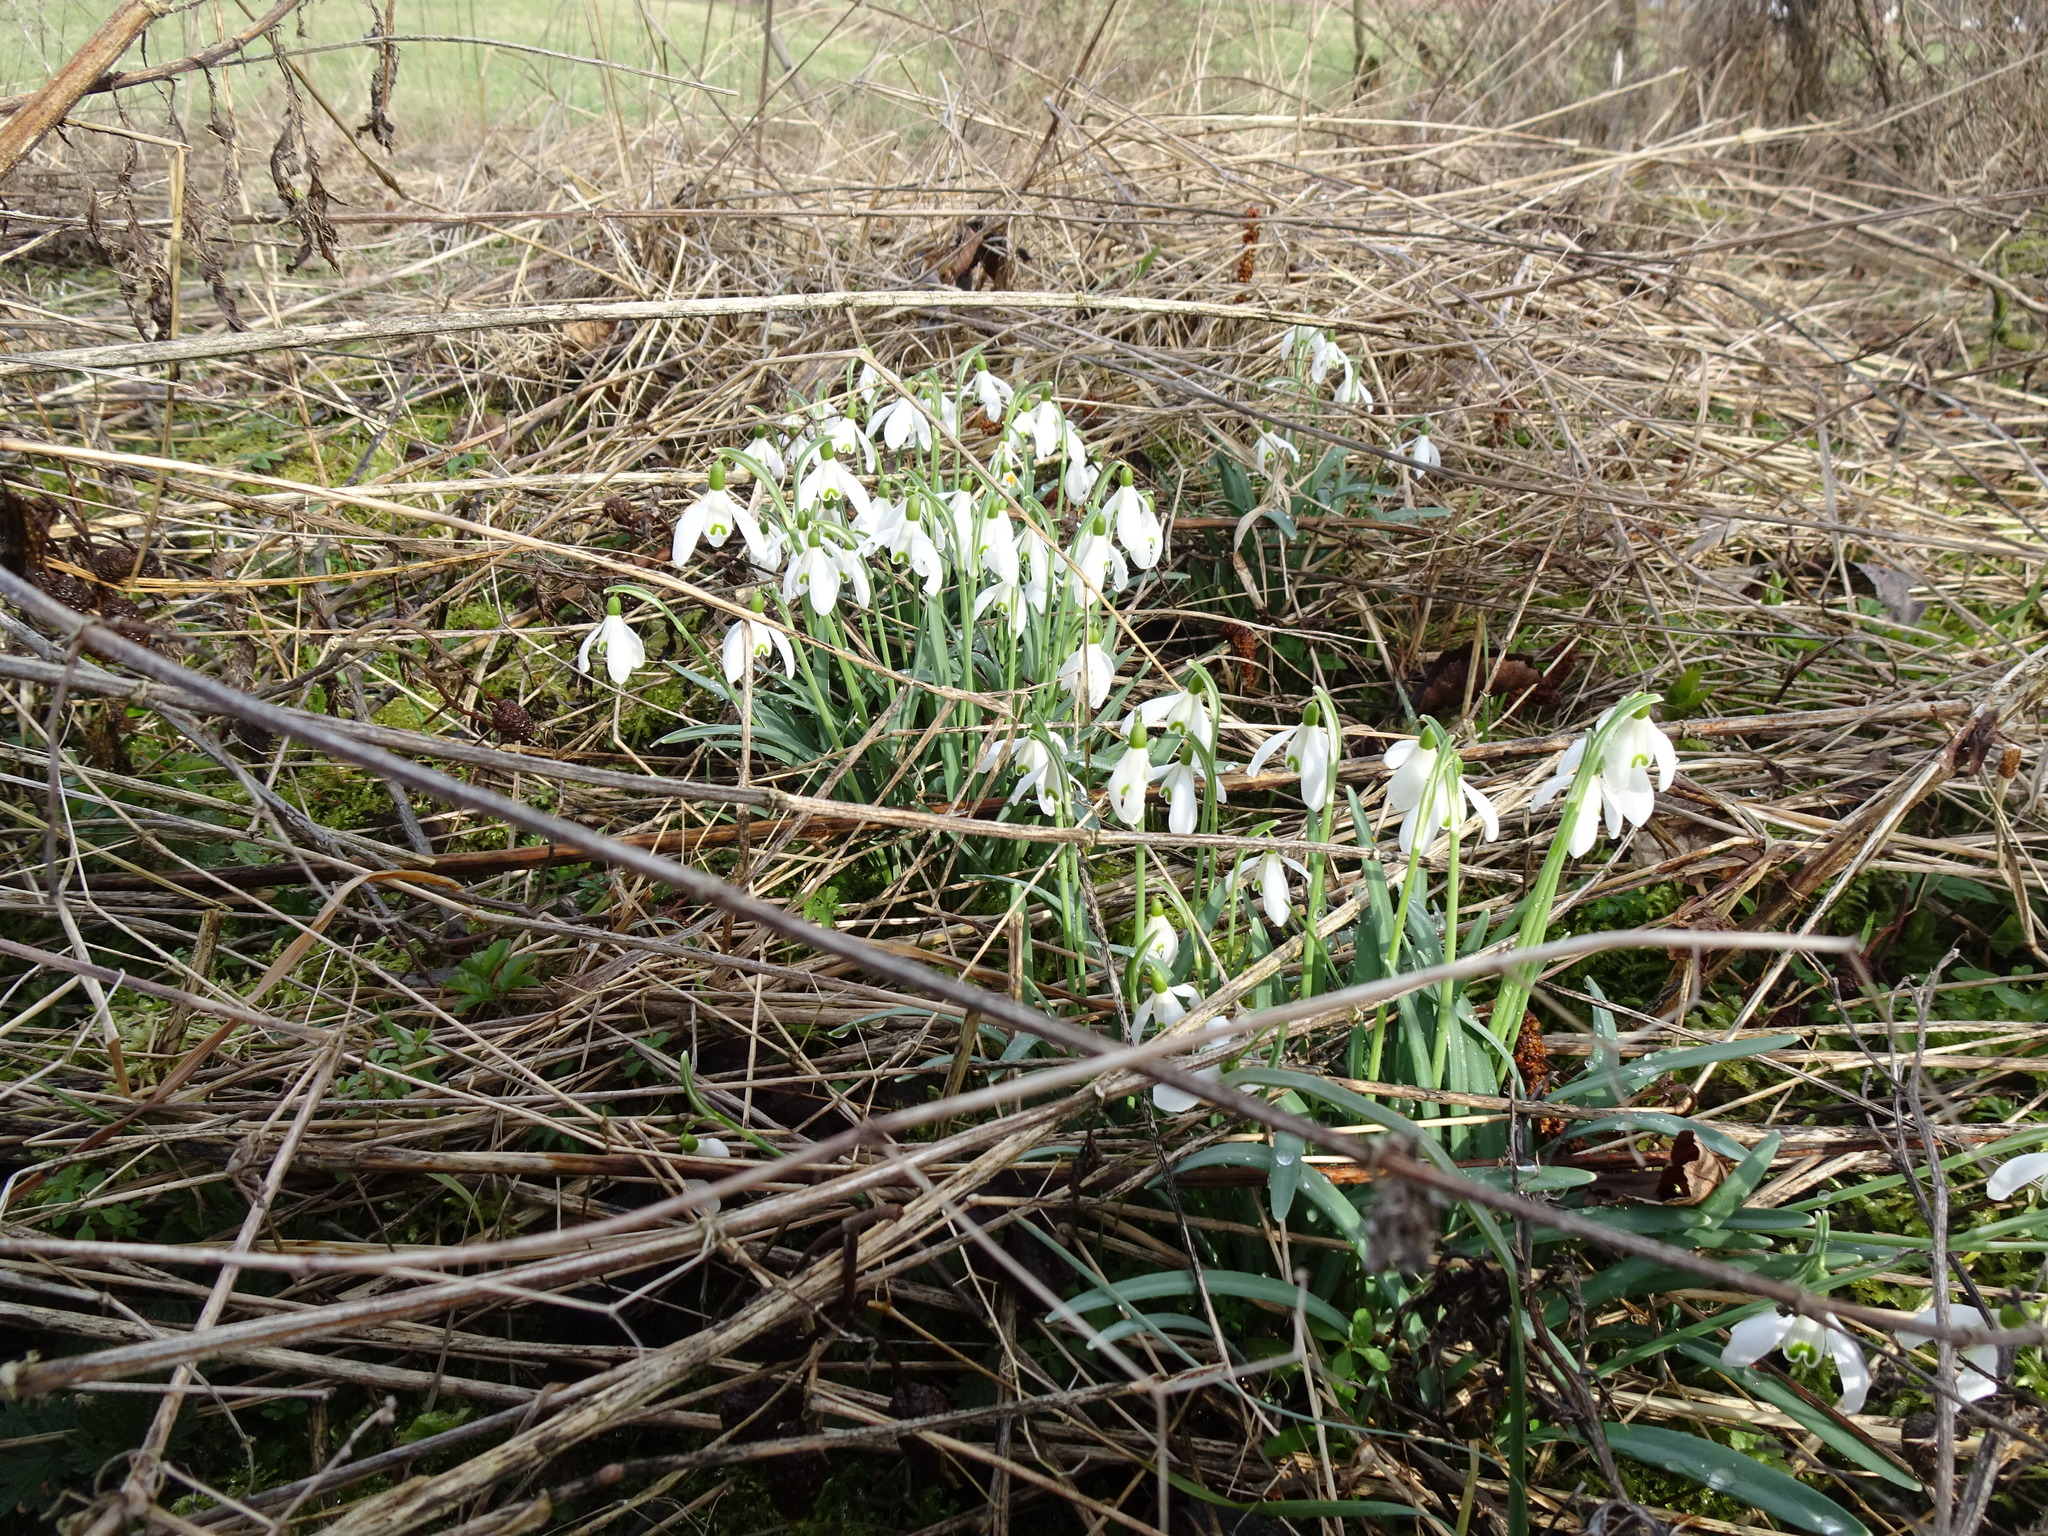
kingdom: Plantae
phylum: Tracheophyta
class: Liliopsida
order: Asparagales
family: Amaryllidaceae
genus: Galanthus
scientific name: Galanthus nivalis
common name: Snowdrop
